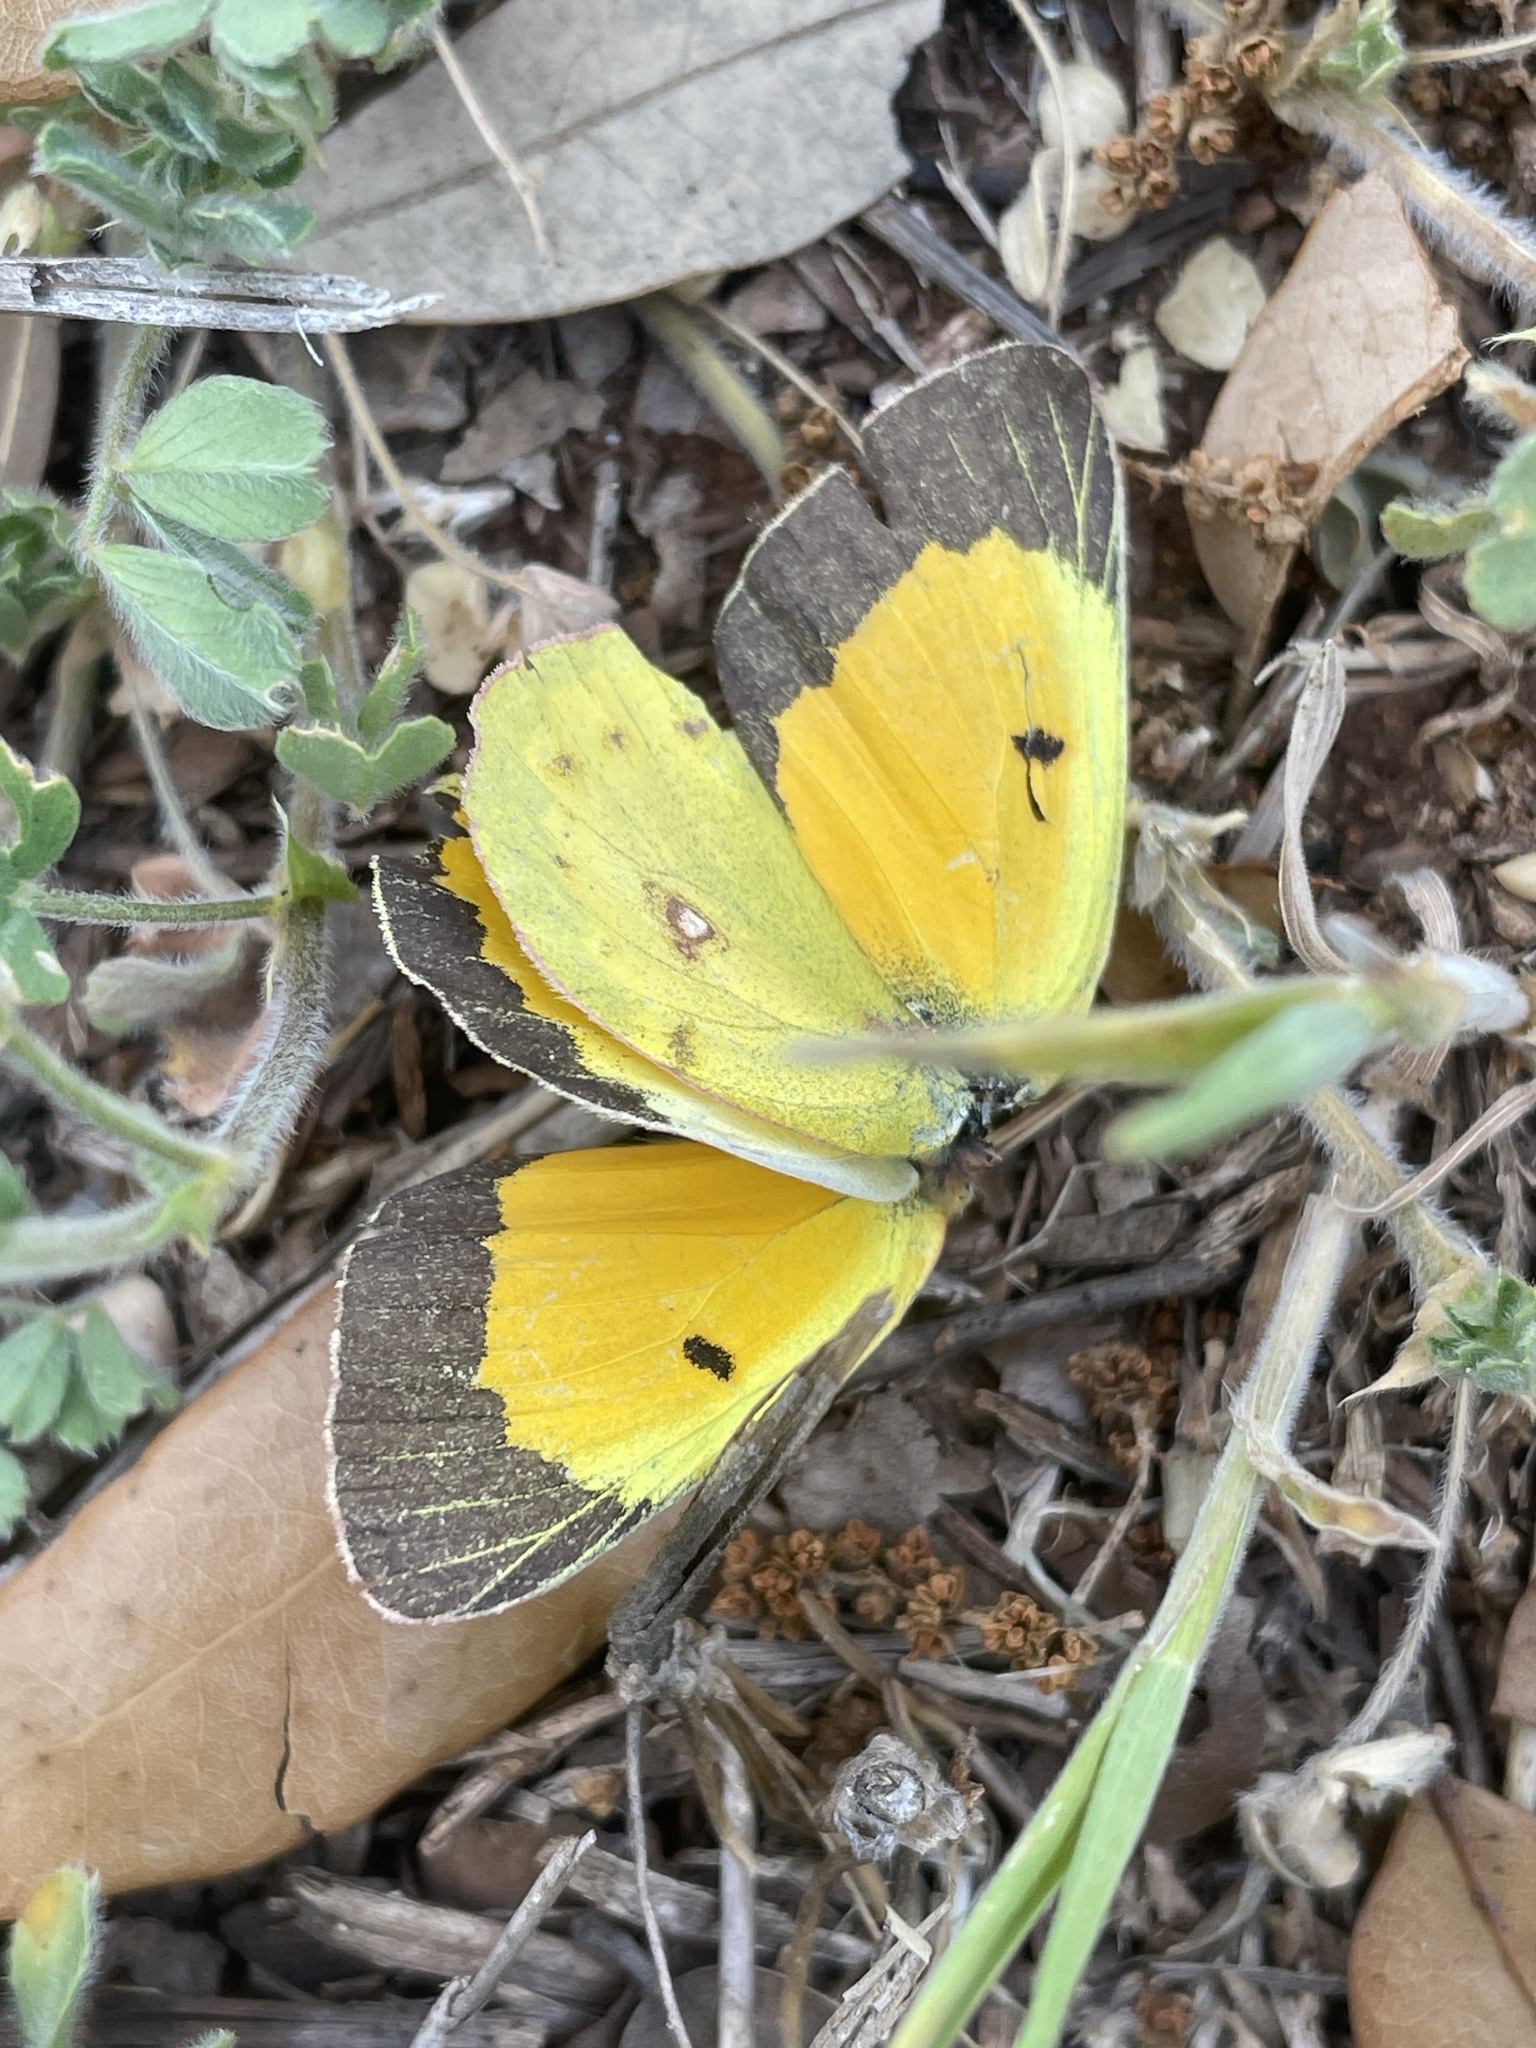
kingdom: Animalia
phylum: Arthropoda
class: Insecta
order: Lepidoptera
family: Pieridae
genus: Colias
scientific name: Colias eurytheme
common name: Alfalfa butterfly
